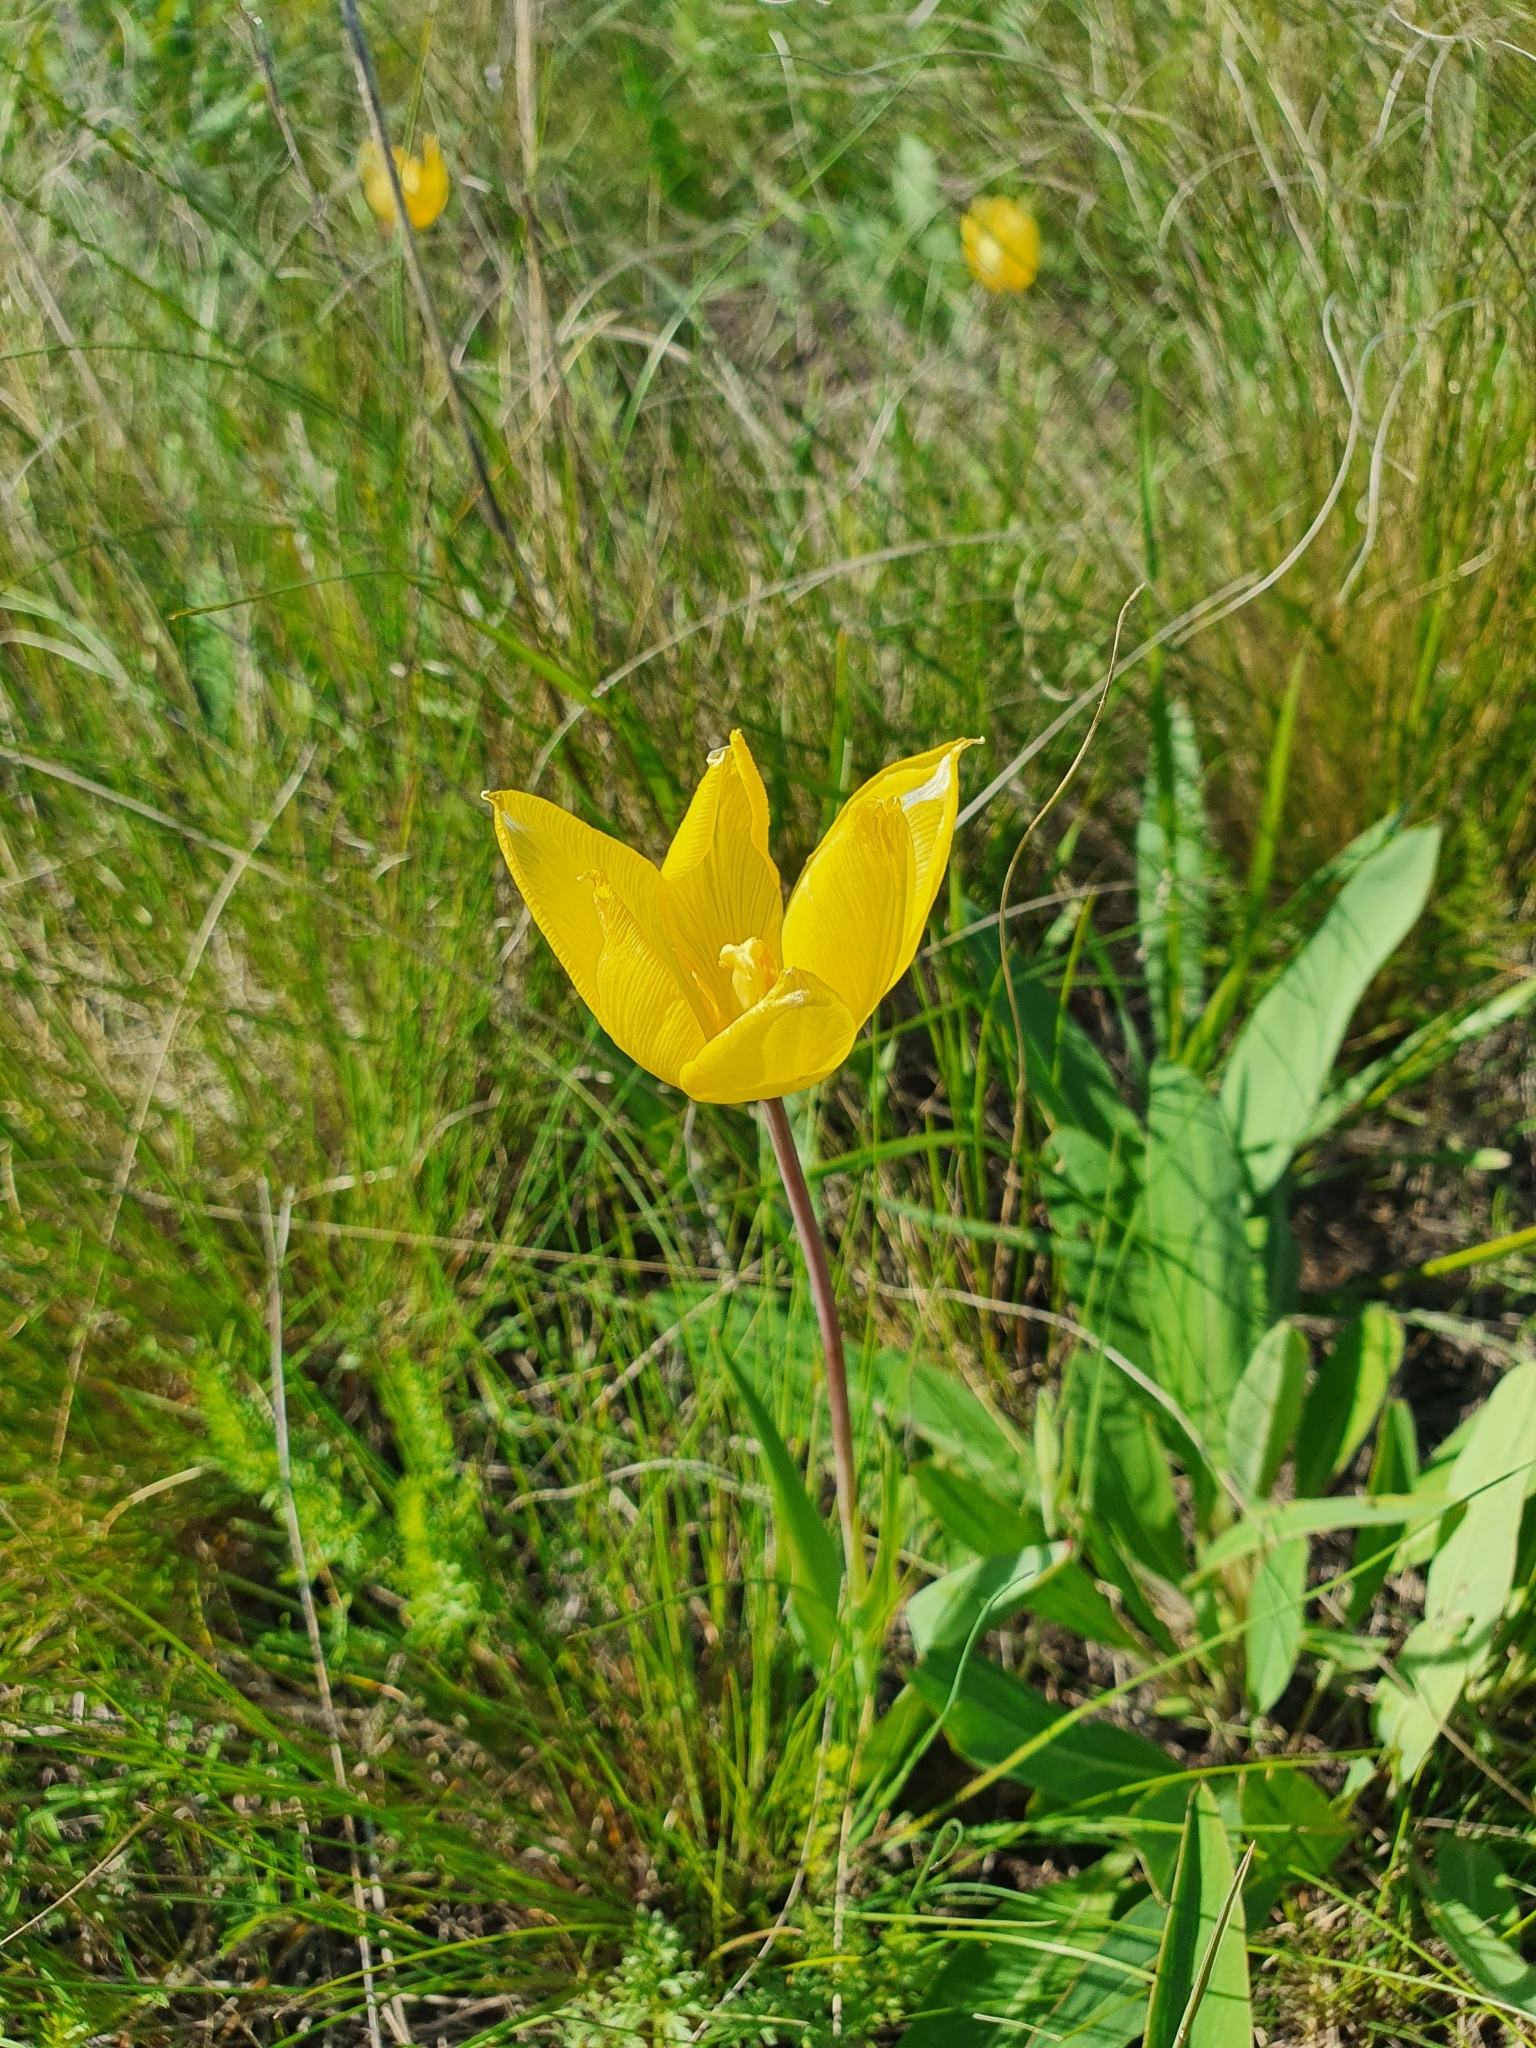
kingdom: Plantae
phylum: Tracheophyta
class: Liliopsida
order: Liliales
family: Liliaceae
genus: Tulipa
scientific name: Tulipa suaveolens
